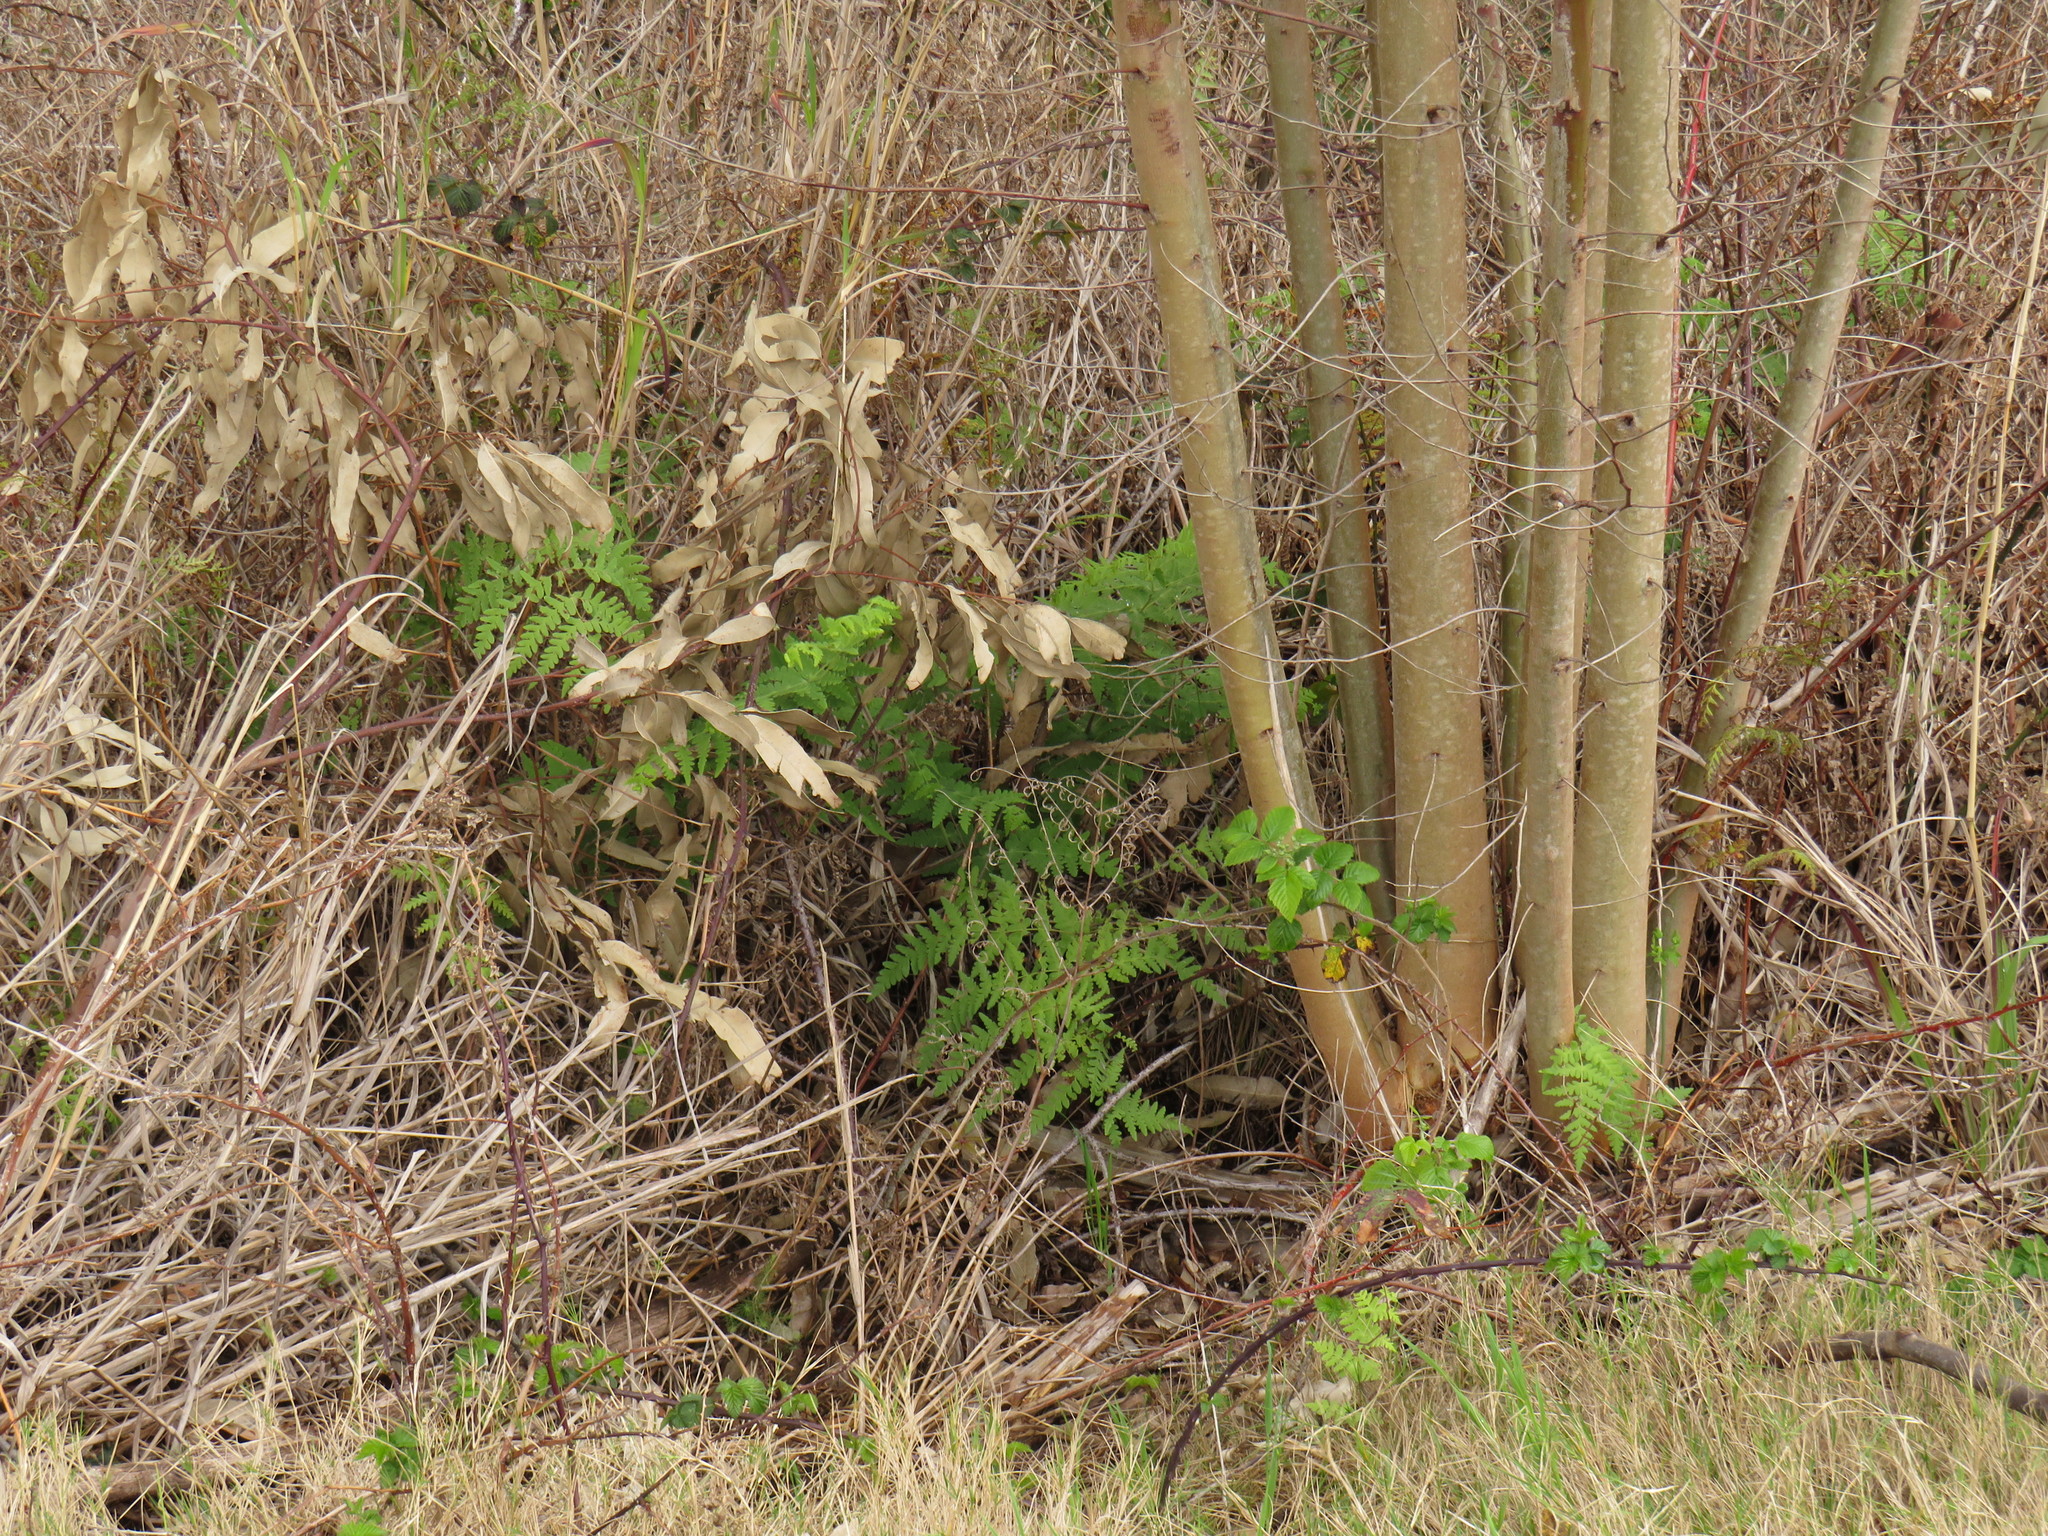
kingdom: Plantae
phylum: Tracheophyta
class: Polypodiopsida
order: Polypodiales
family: Dennstaedtiaceae
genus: Histiopteris
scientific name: Histiopteris incisa
